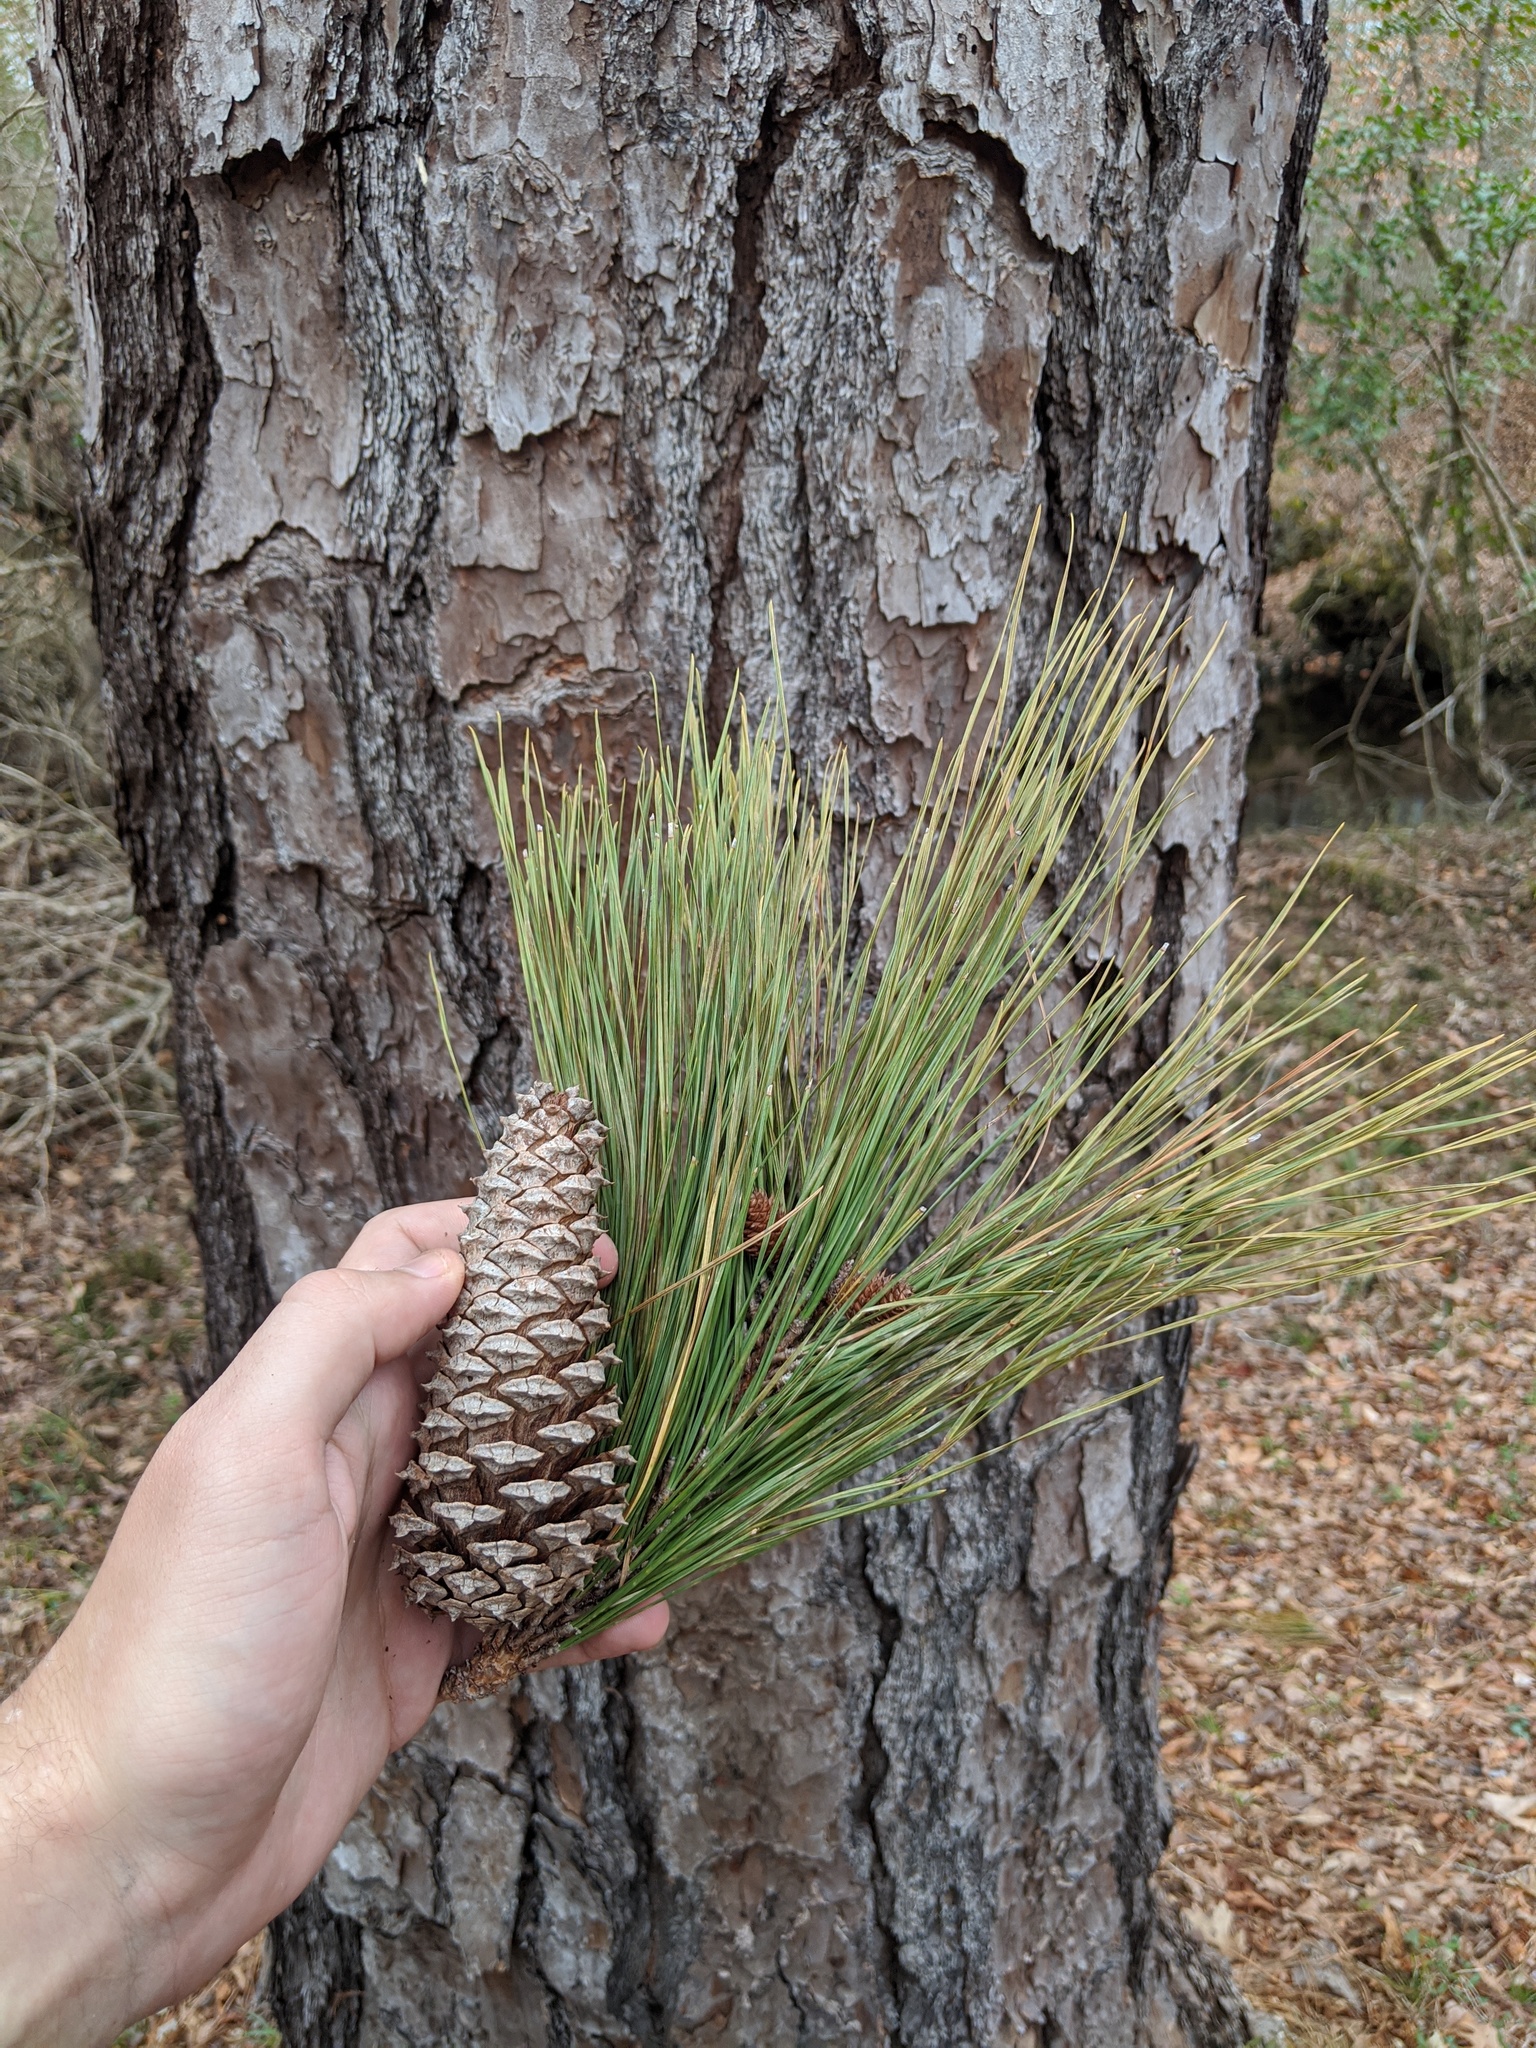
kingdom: Plantae
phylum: Tracheophyta
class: Pinopsida
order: Pinales
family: Pinaceae
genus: Pinus
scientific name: Pinus taeda
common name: Loblolly pine
